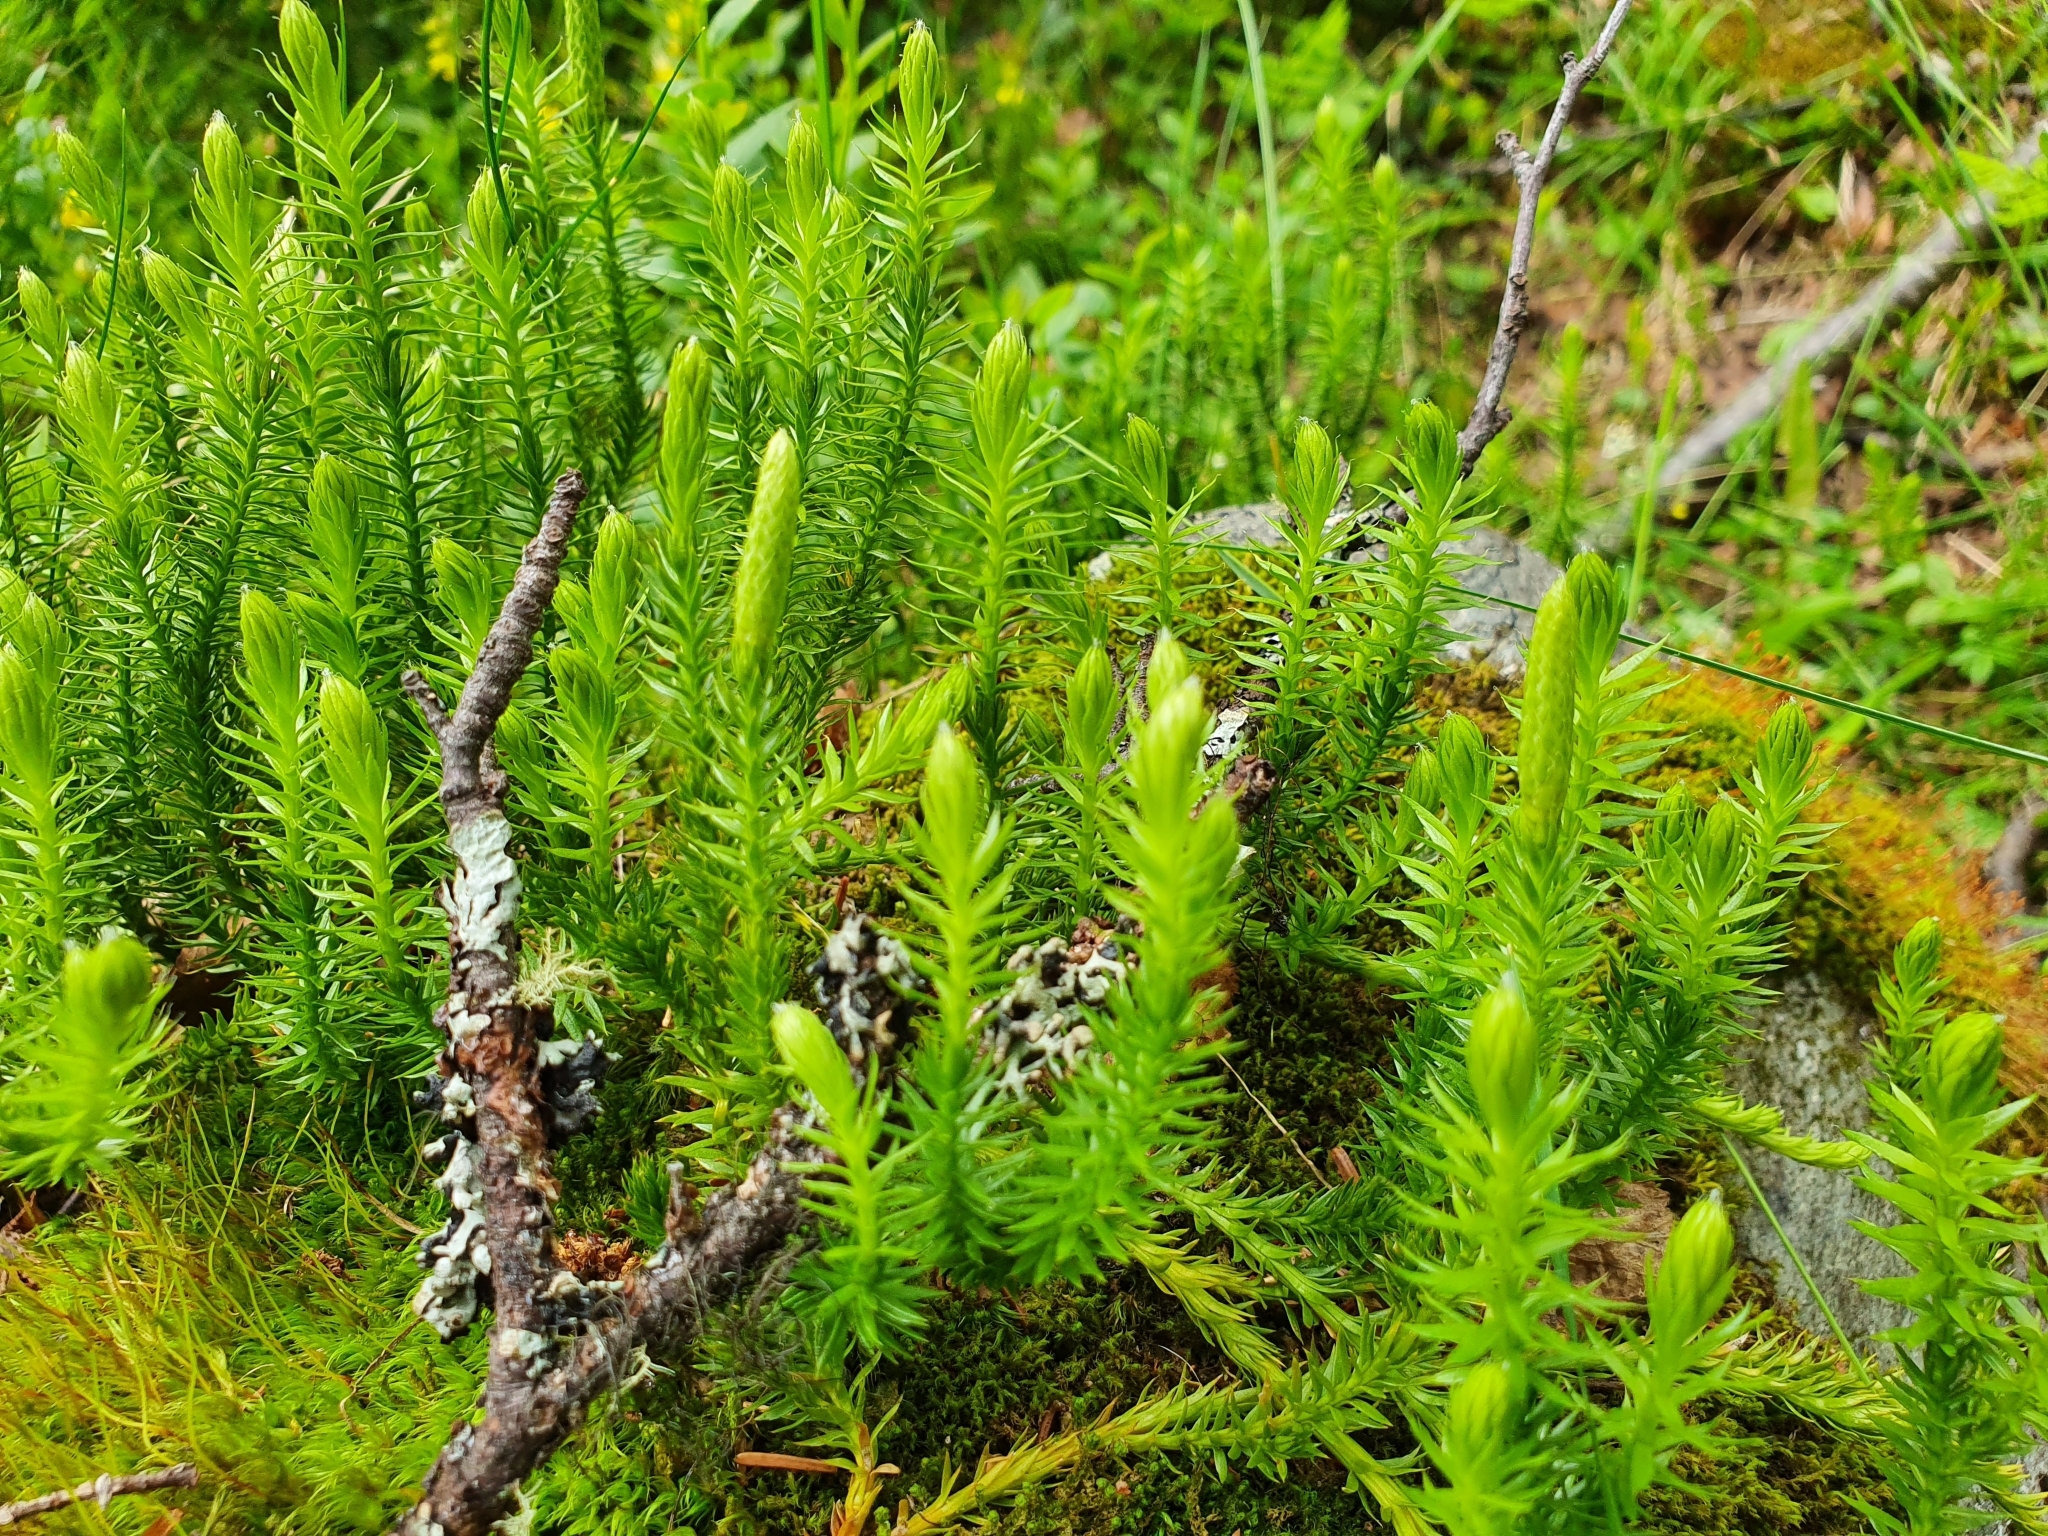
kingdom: Plantae
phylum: Tracheophyta
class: Lycopodiopsida
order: Lycopodiales
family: Lycopodiaceae
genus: Spinulum
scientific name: Spinulum annotinum
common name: Interrupted club-moss
